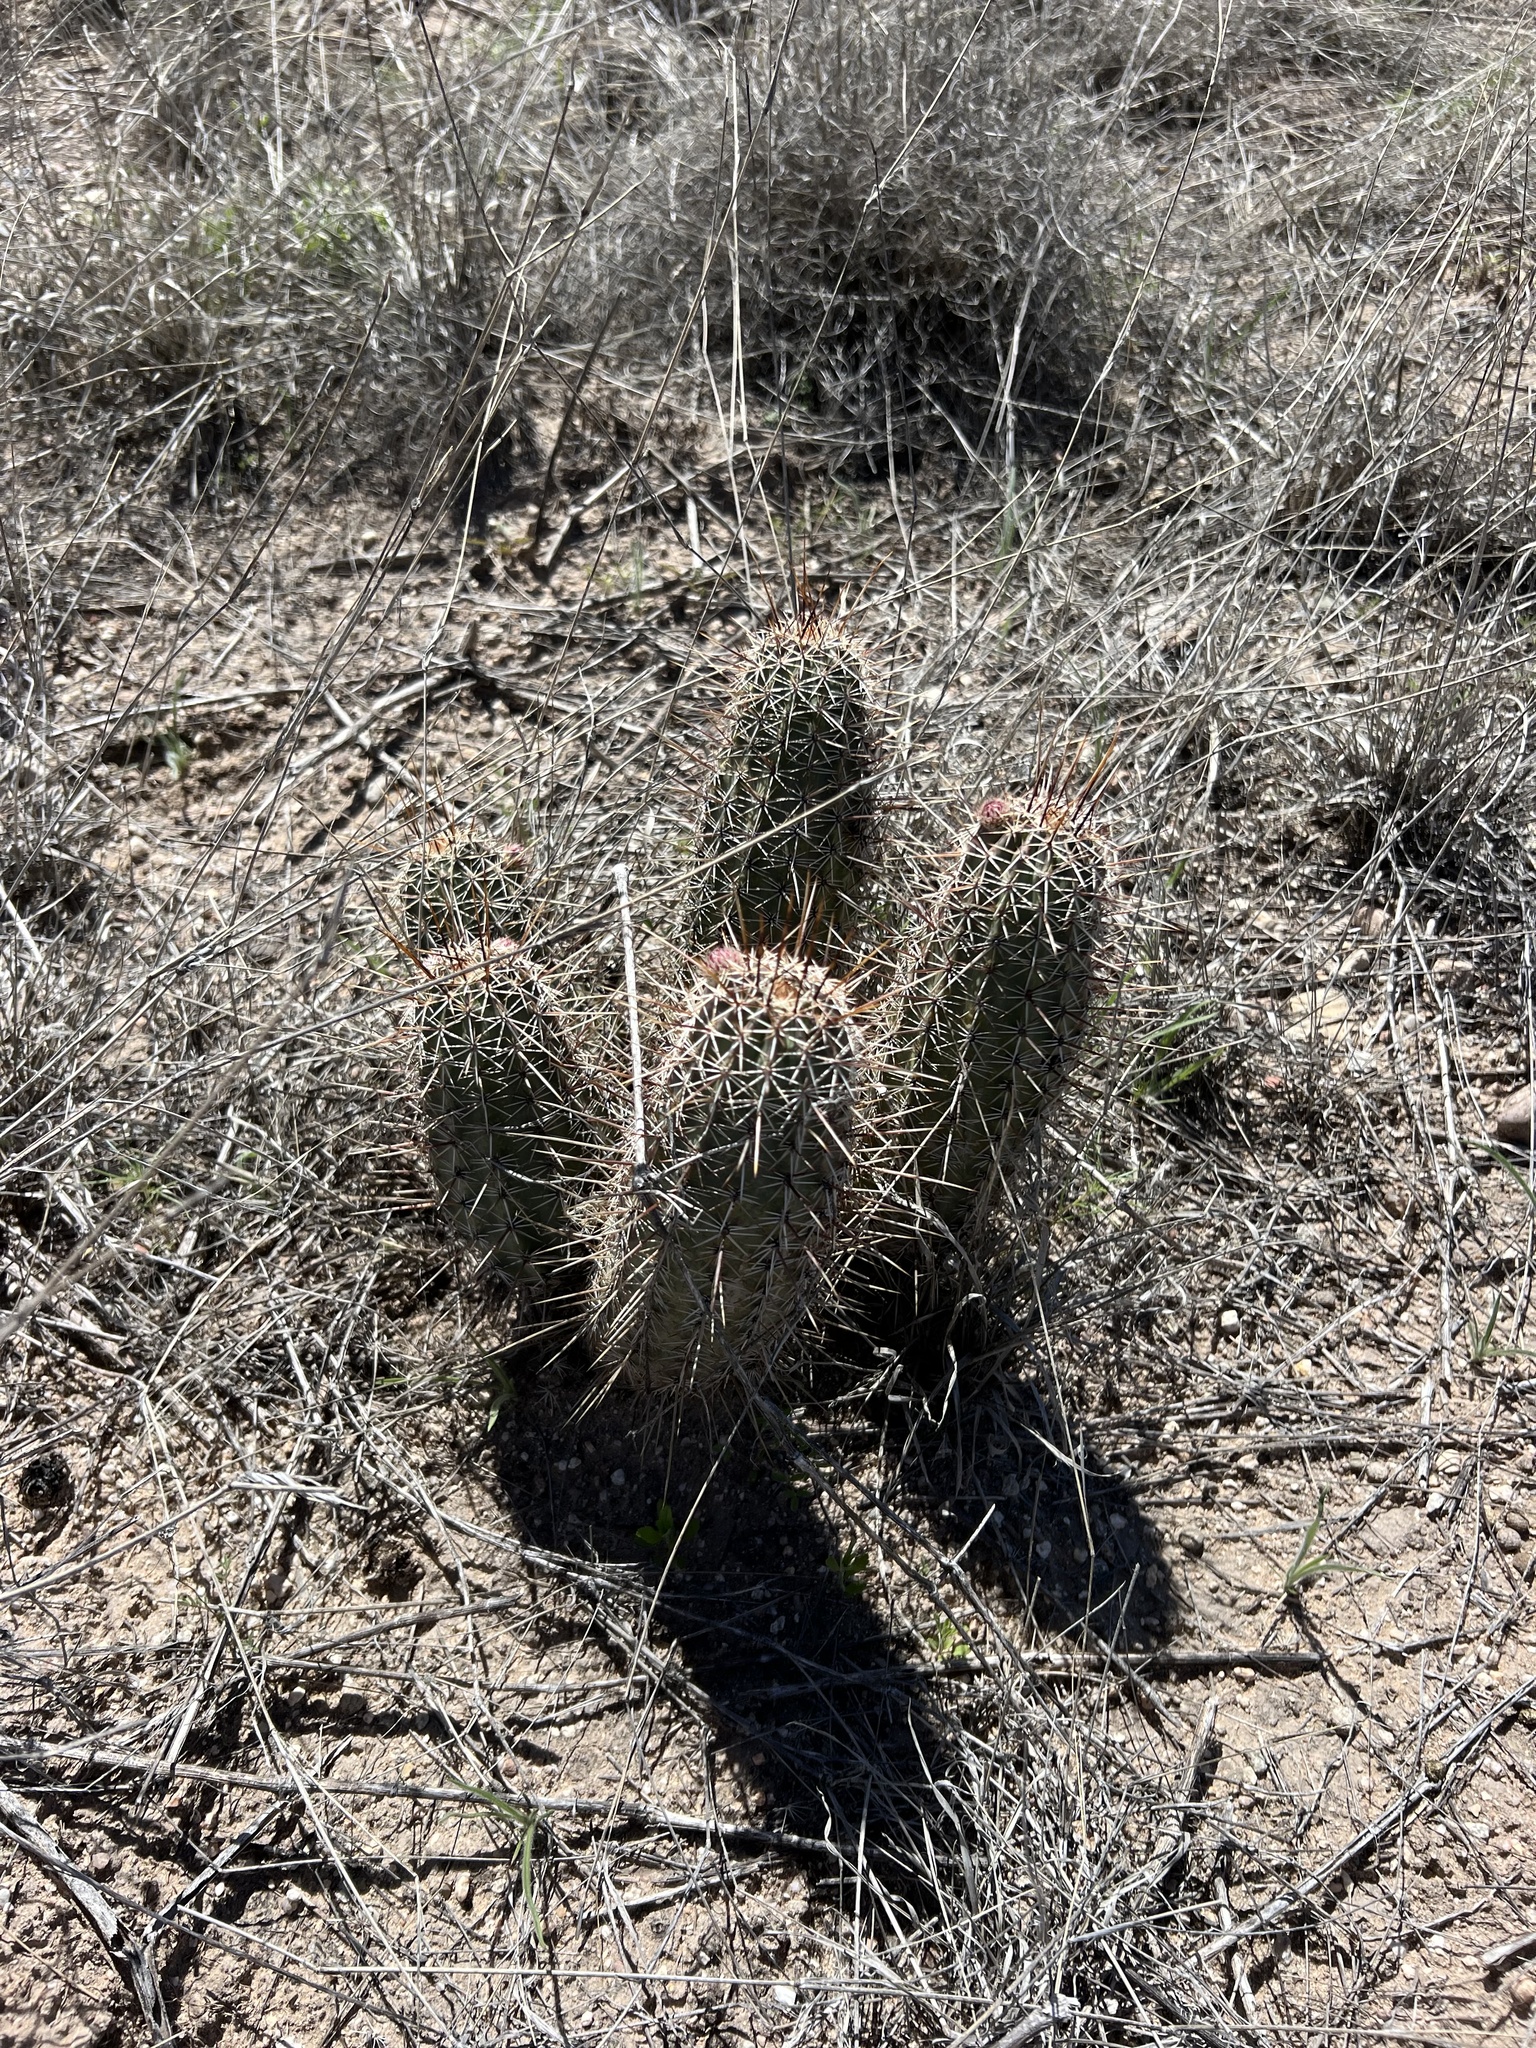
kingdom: Plantae
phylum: Tracheophyta
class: Magnoliopsida
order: Caryophyllales
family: Cactaceae
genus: Echinocereus
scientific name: Echinocereus fasciculatus
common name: Bundle hedgehog
